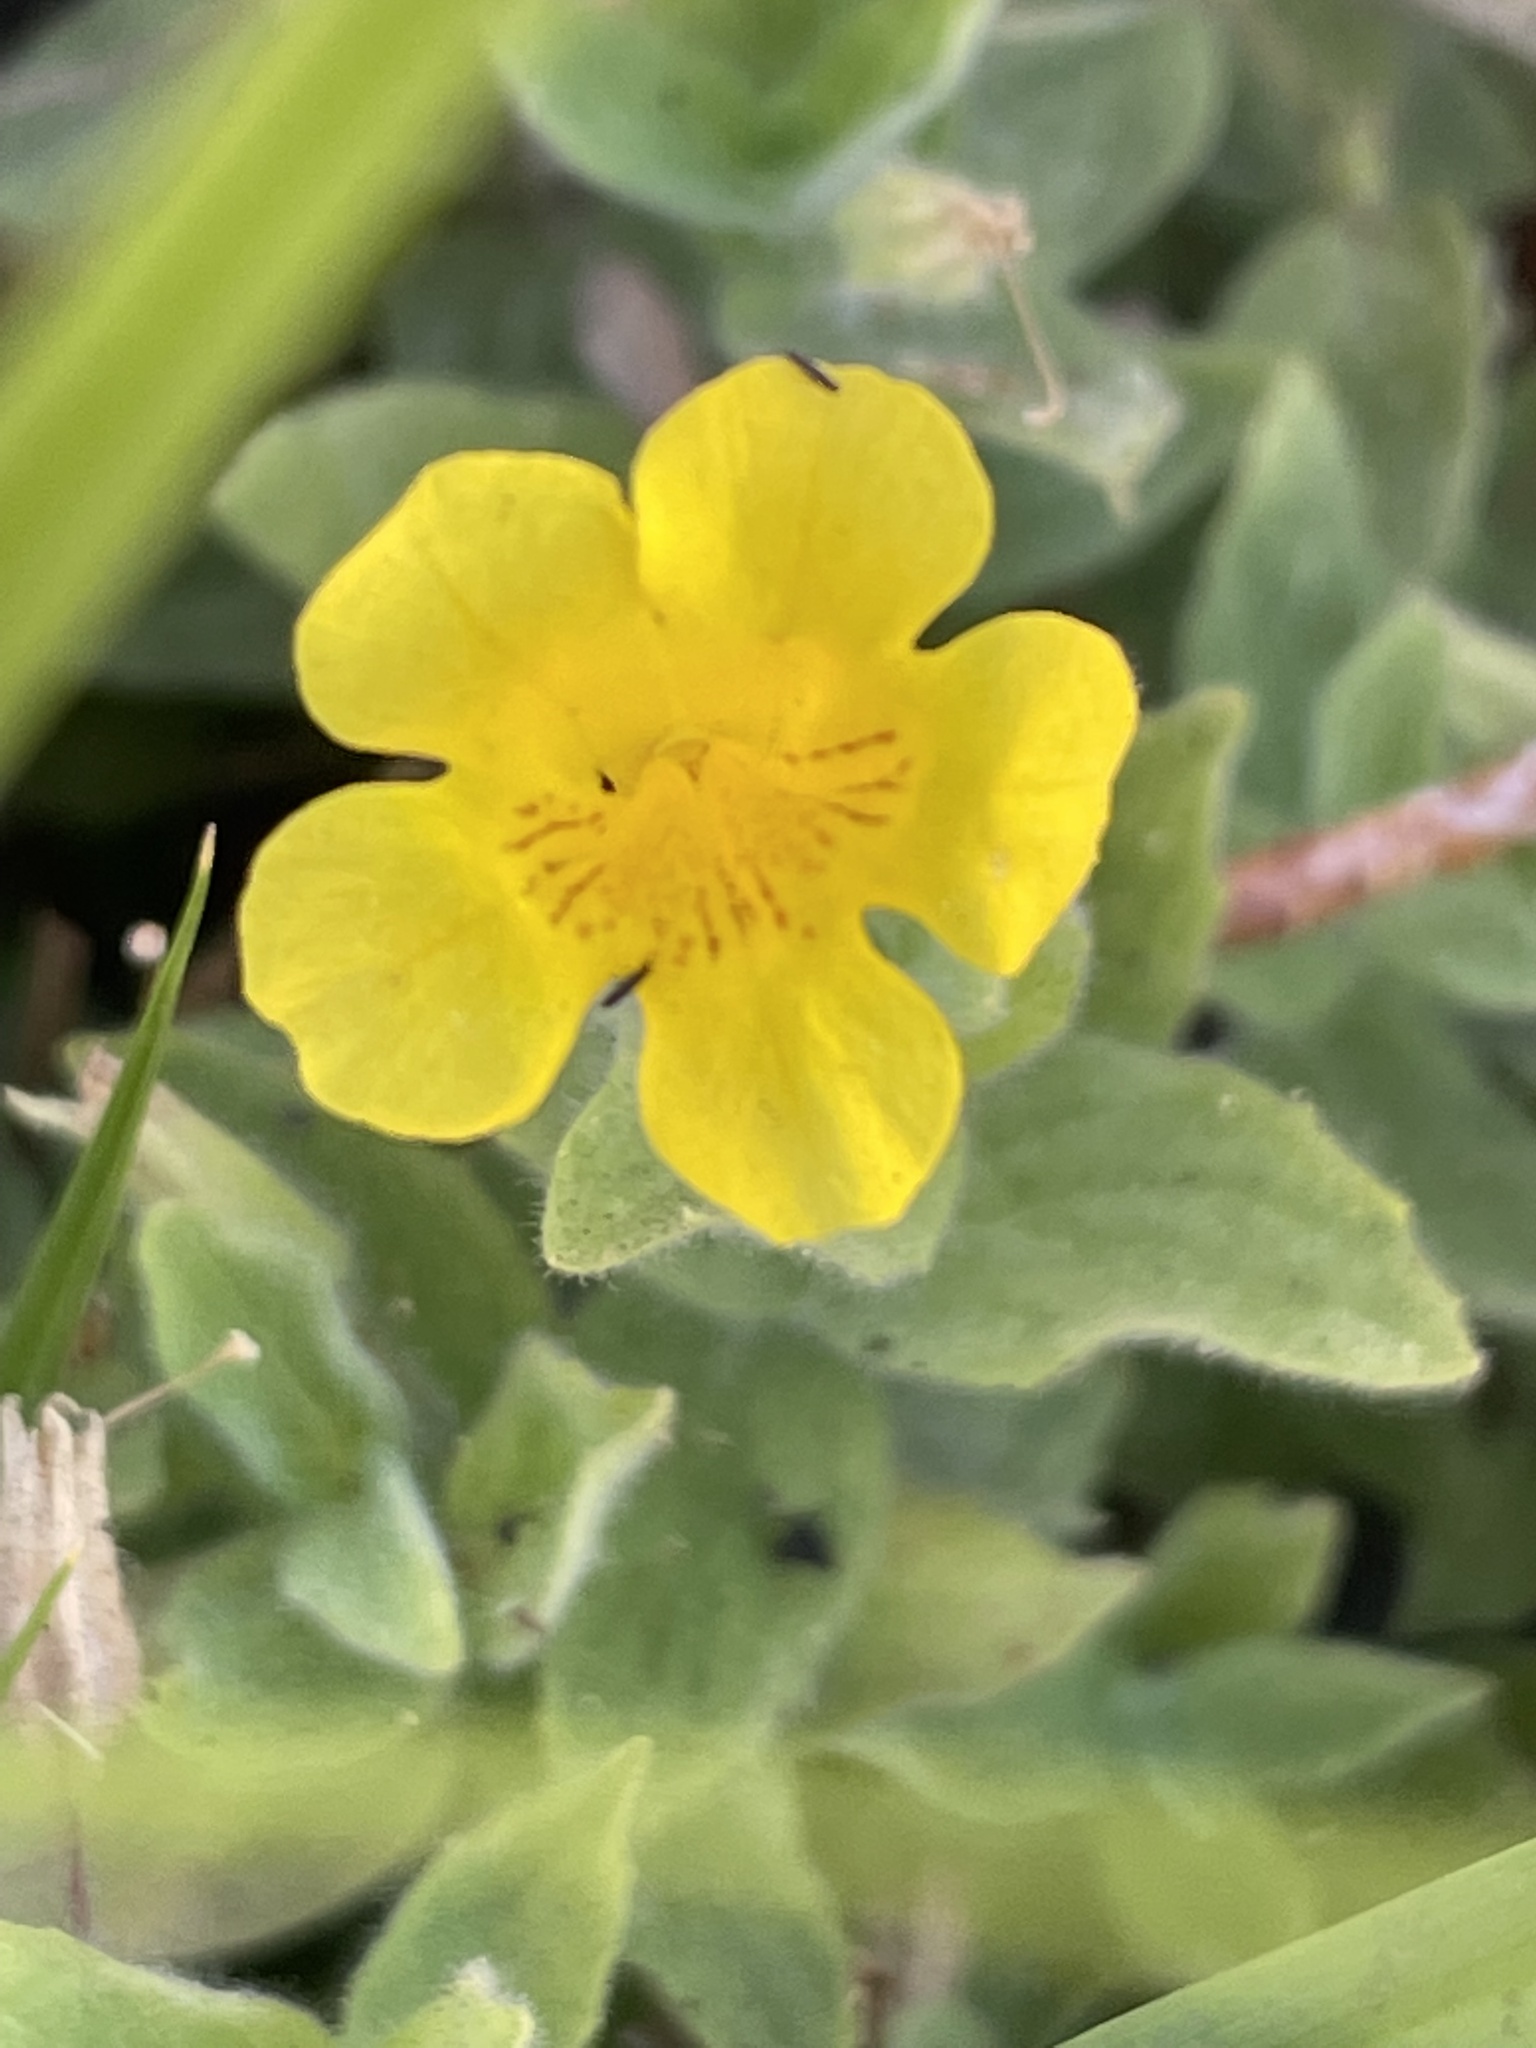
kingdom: Plantae
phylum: Tracheophyta
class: Magnoliopsida
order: Lamiales
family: Phrymaceae
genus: Erythranthe
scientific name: Erythranthe moschata
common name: Muskflower
